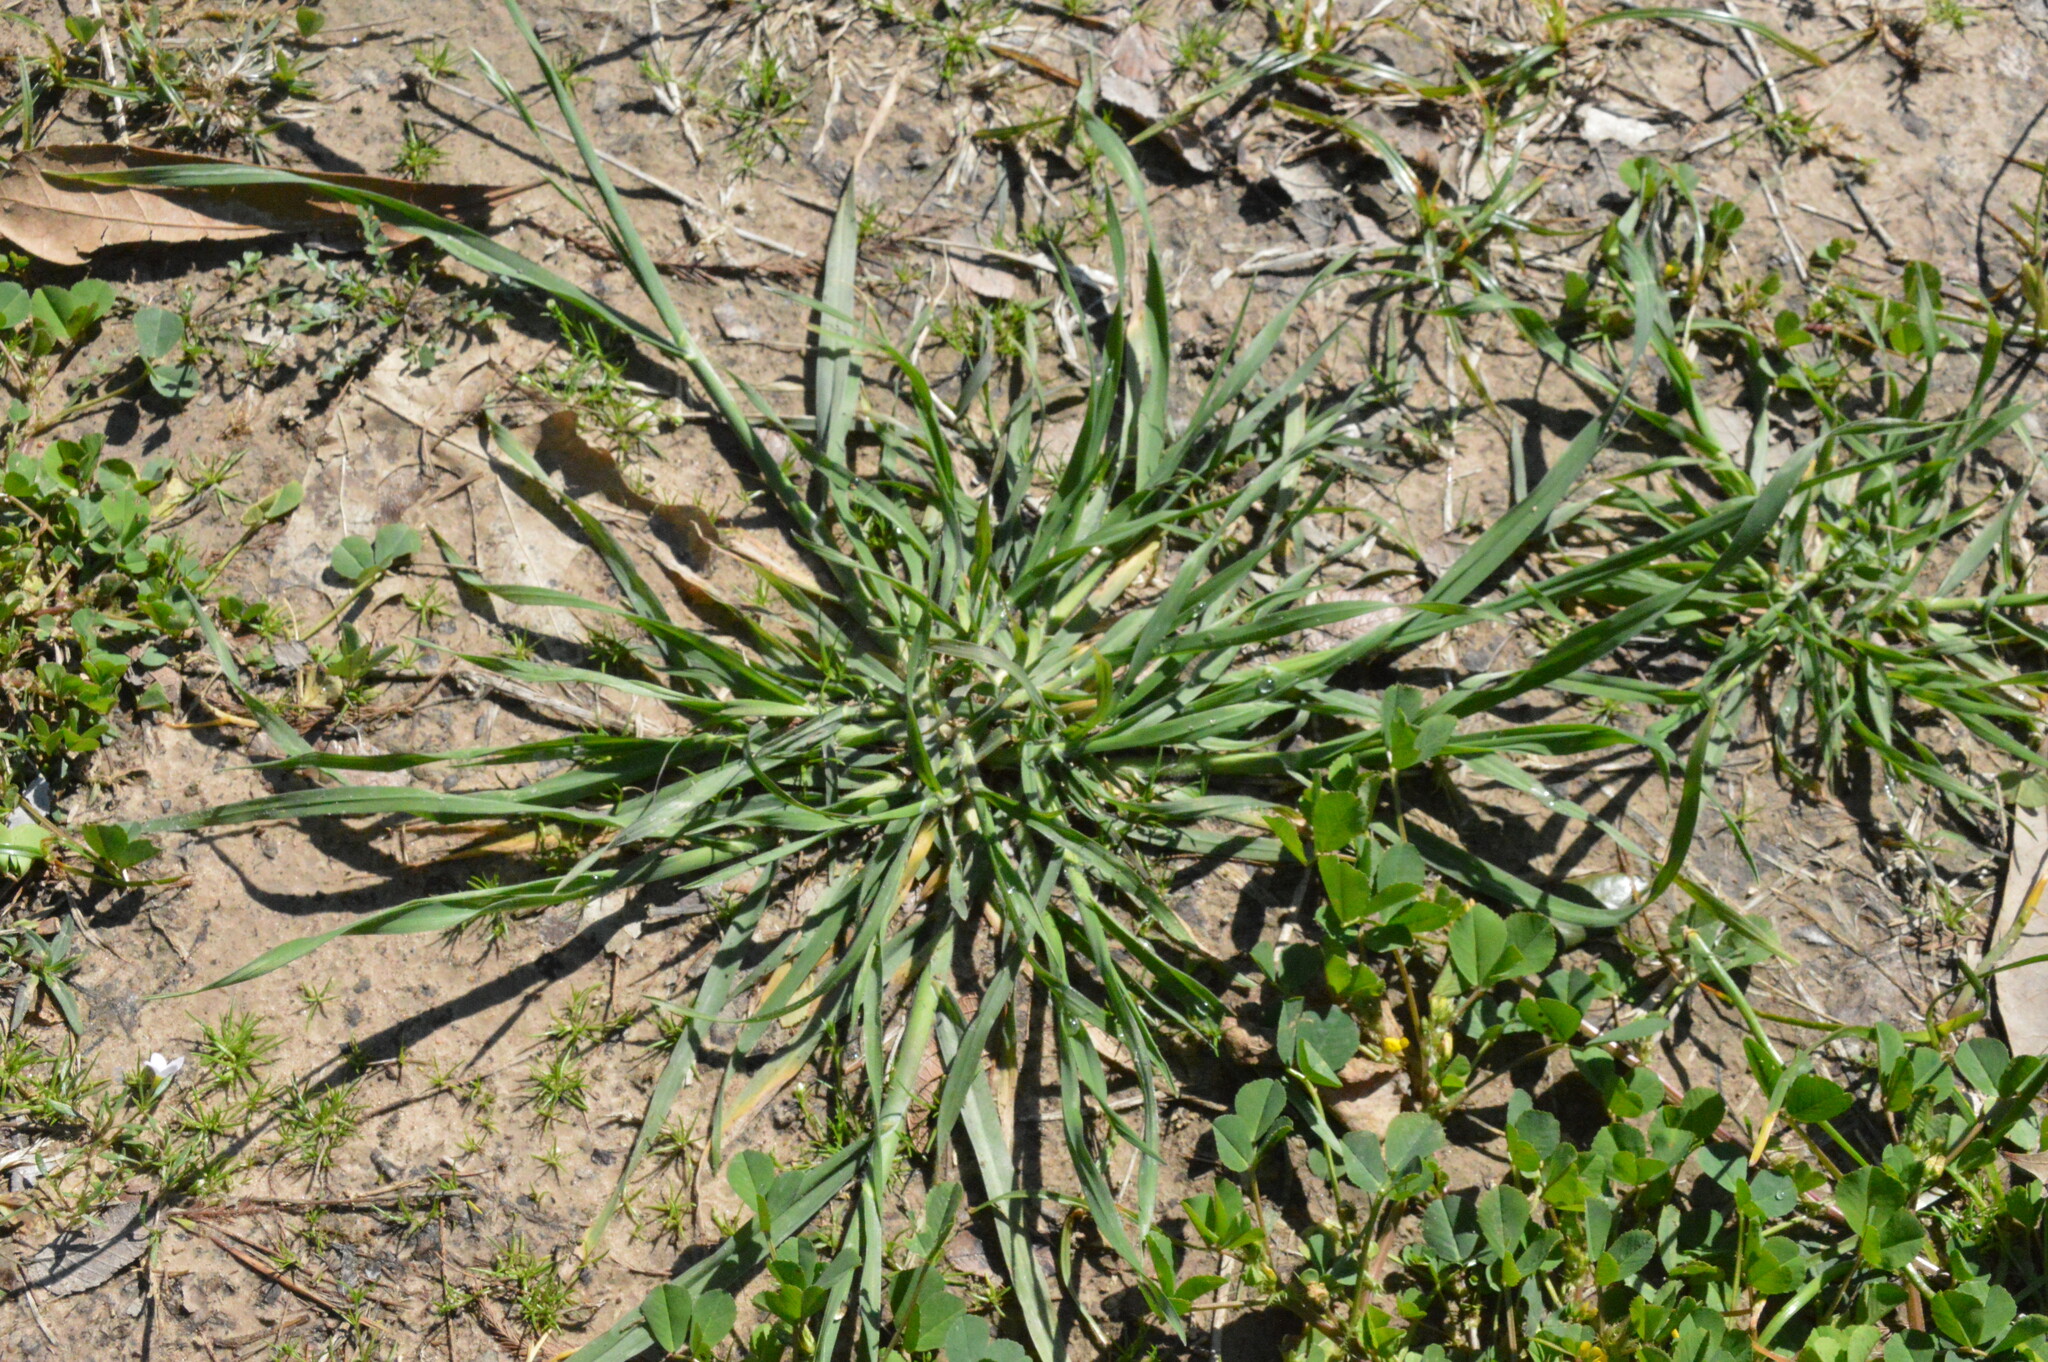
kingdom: Plantae
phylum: Tracheophyta
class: Liliopsida
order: Poales
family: Poaceae
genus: Bromus
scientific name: Bromus catharticus
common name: Rescuegrass
